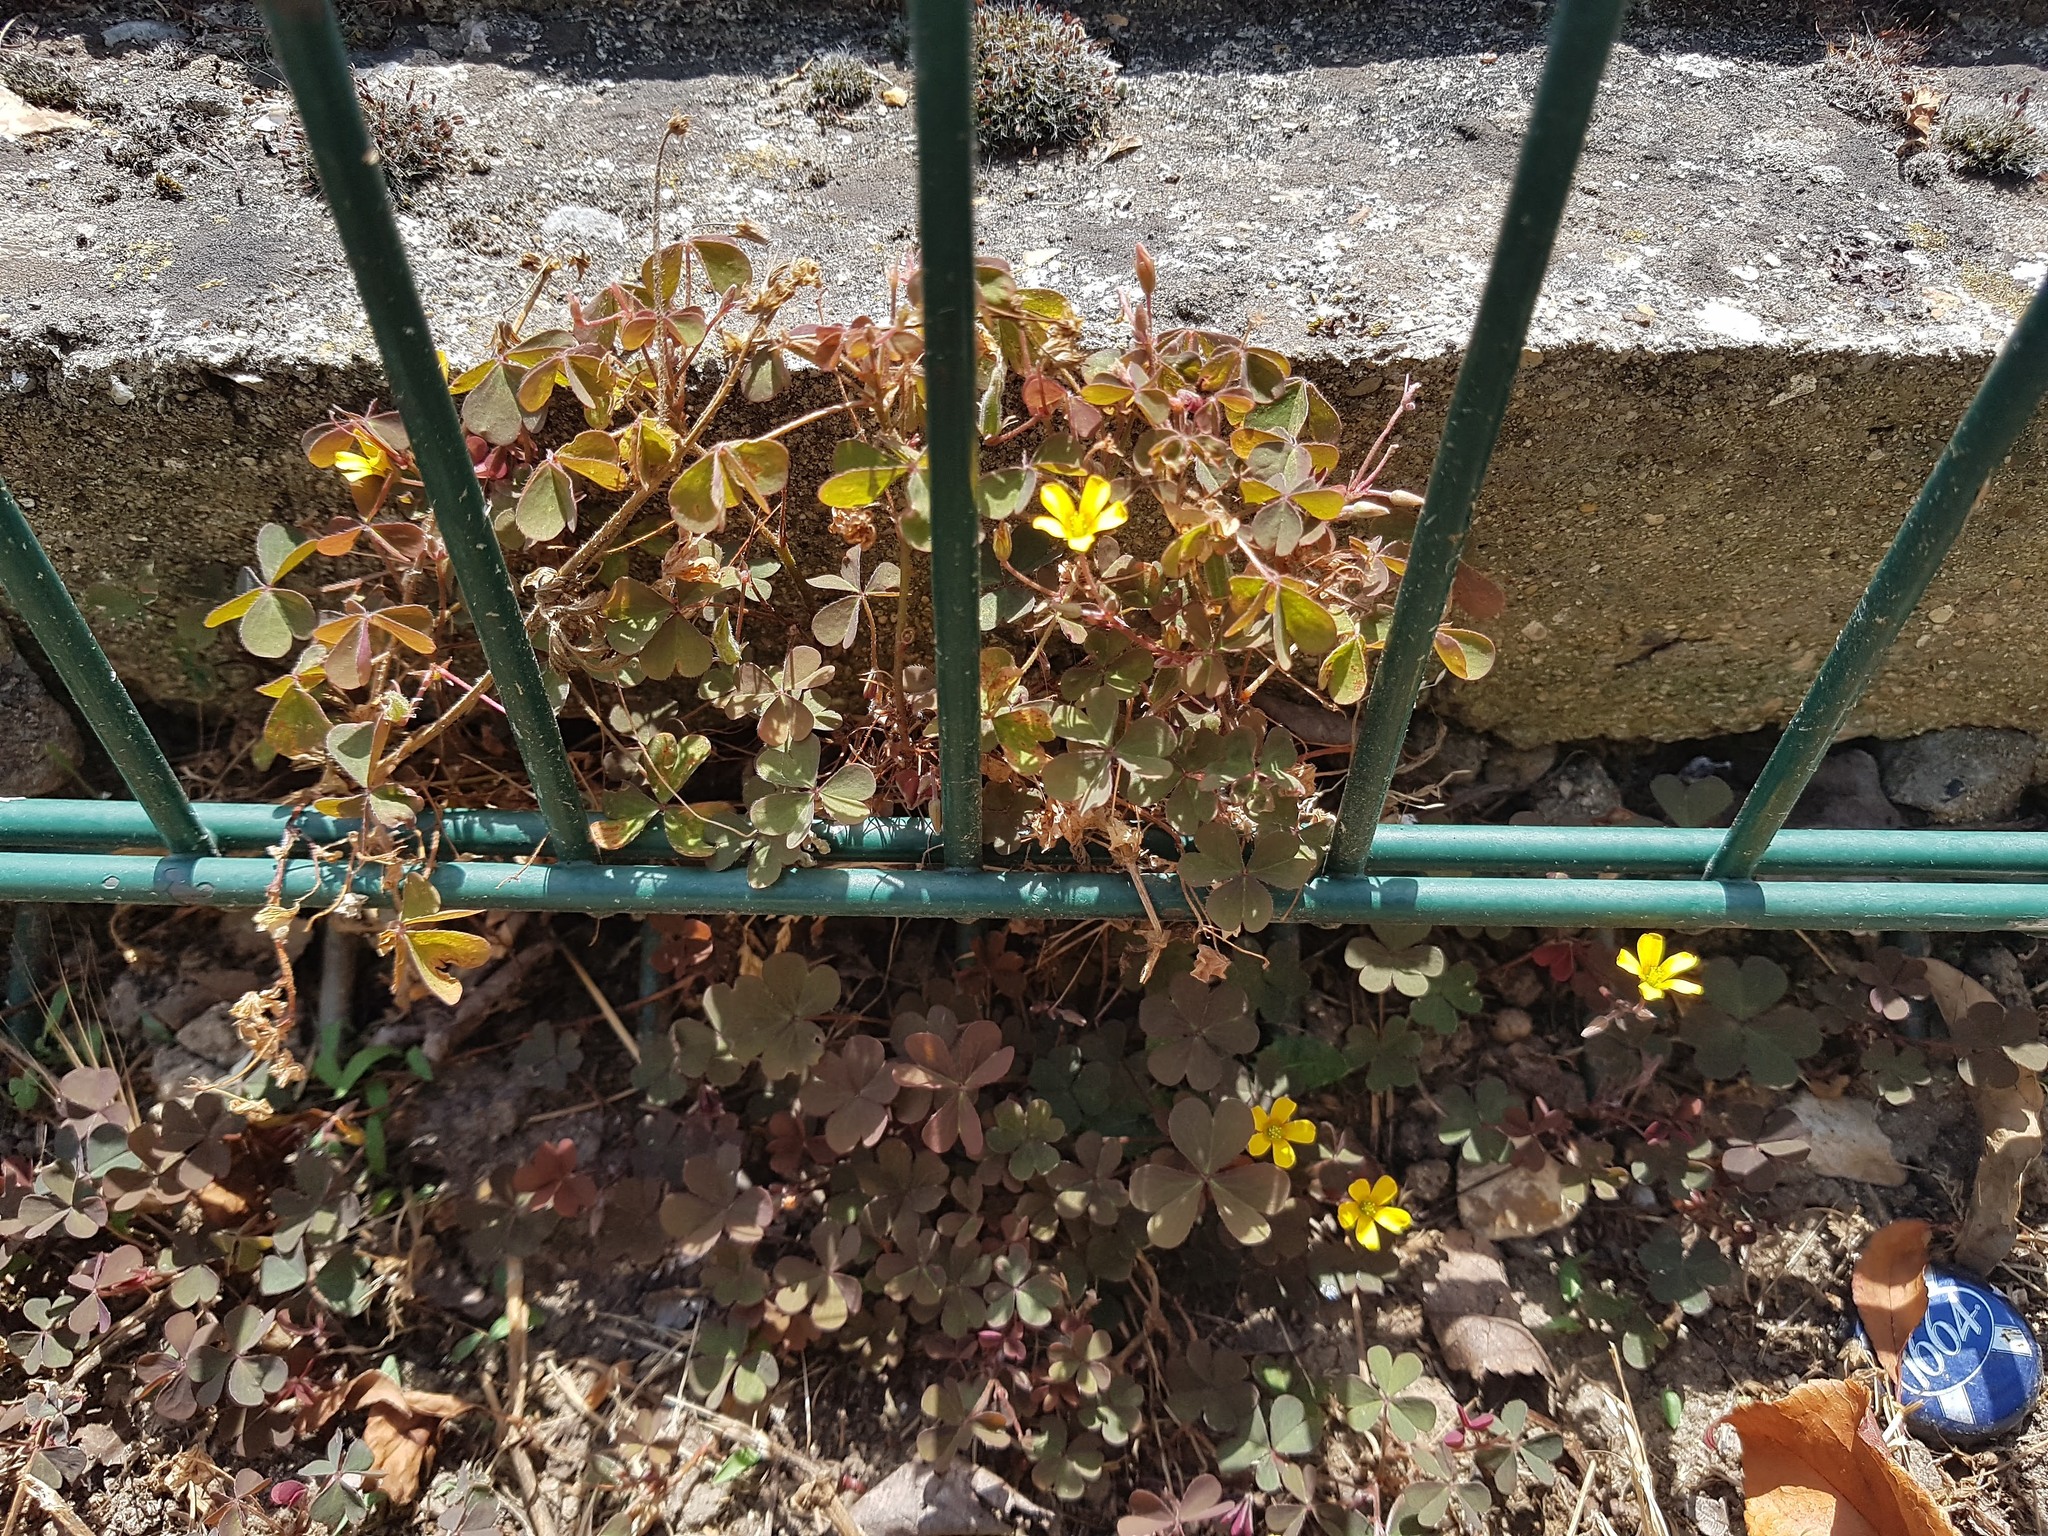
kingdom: Plantae
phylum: Tracheophyta
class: Magnoliopsida
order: Oxalidales
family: Oxalidaceae
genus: Oxalis
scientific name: Oxalis corniculata
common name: Procumbent yellow-sorrel
